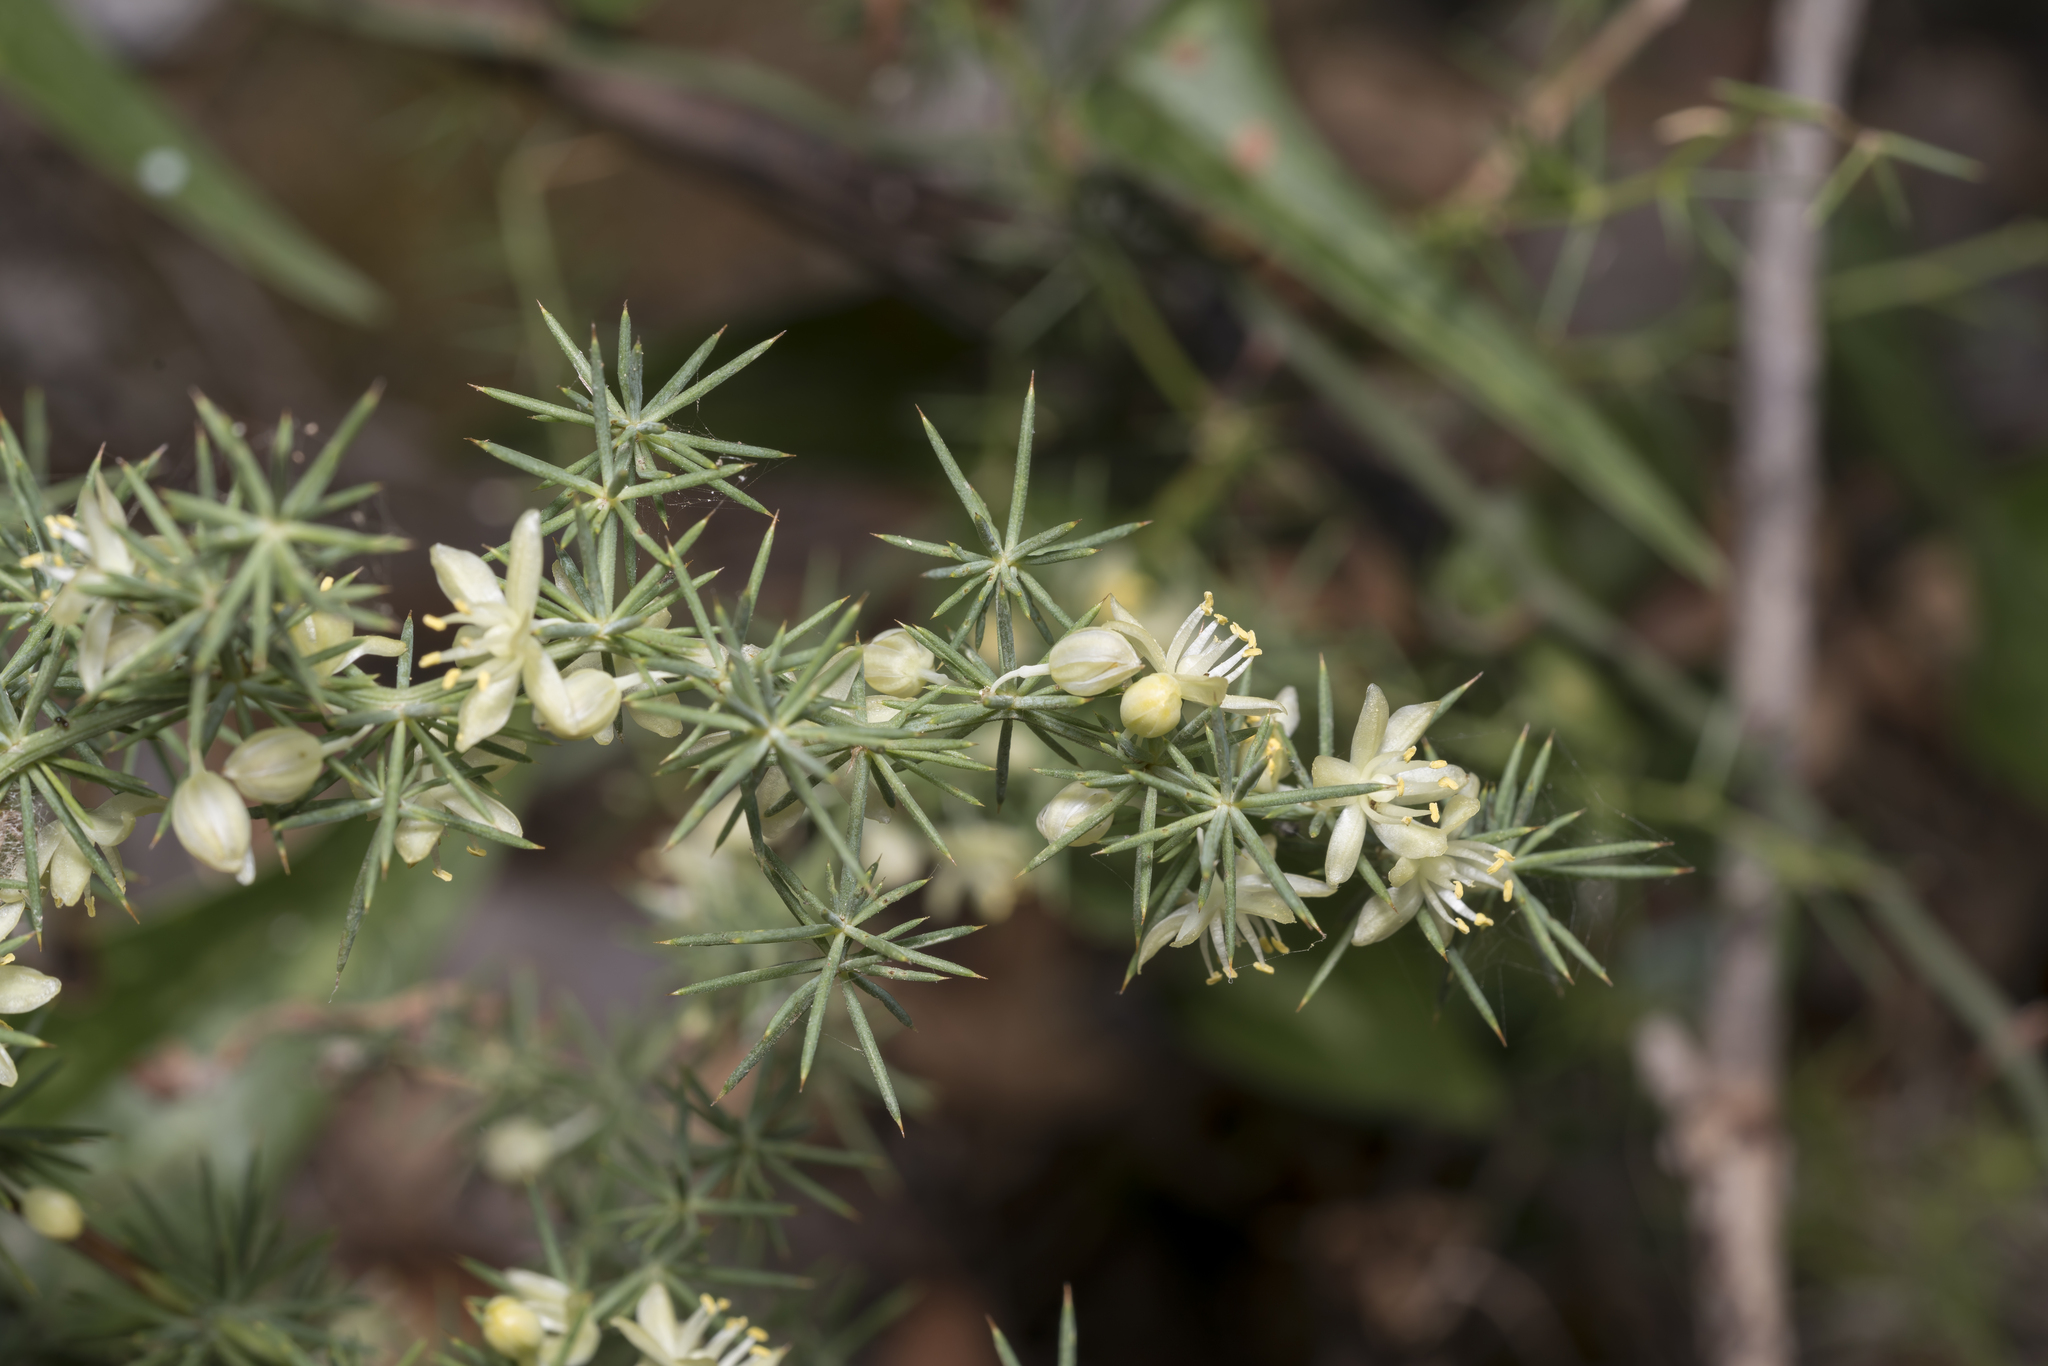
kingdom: Plantae
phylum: Tracheophyta
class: Liliopsida
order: Asparagales
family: Asparagaceae
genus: Asparagus
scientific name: Asparagus aphyllus
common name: Mediterranean asparagus
